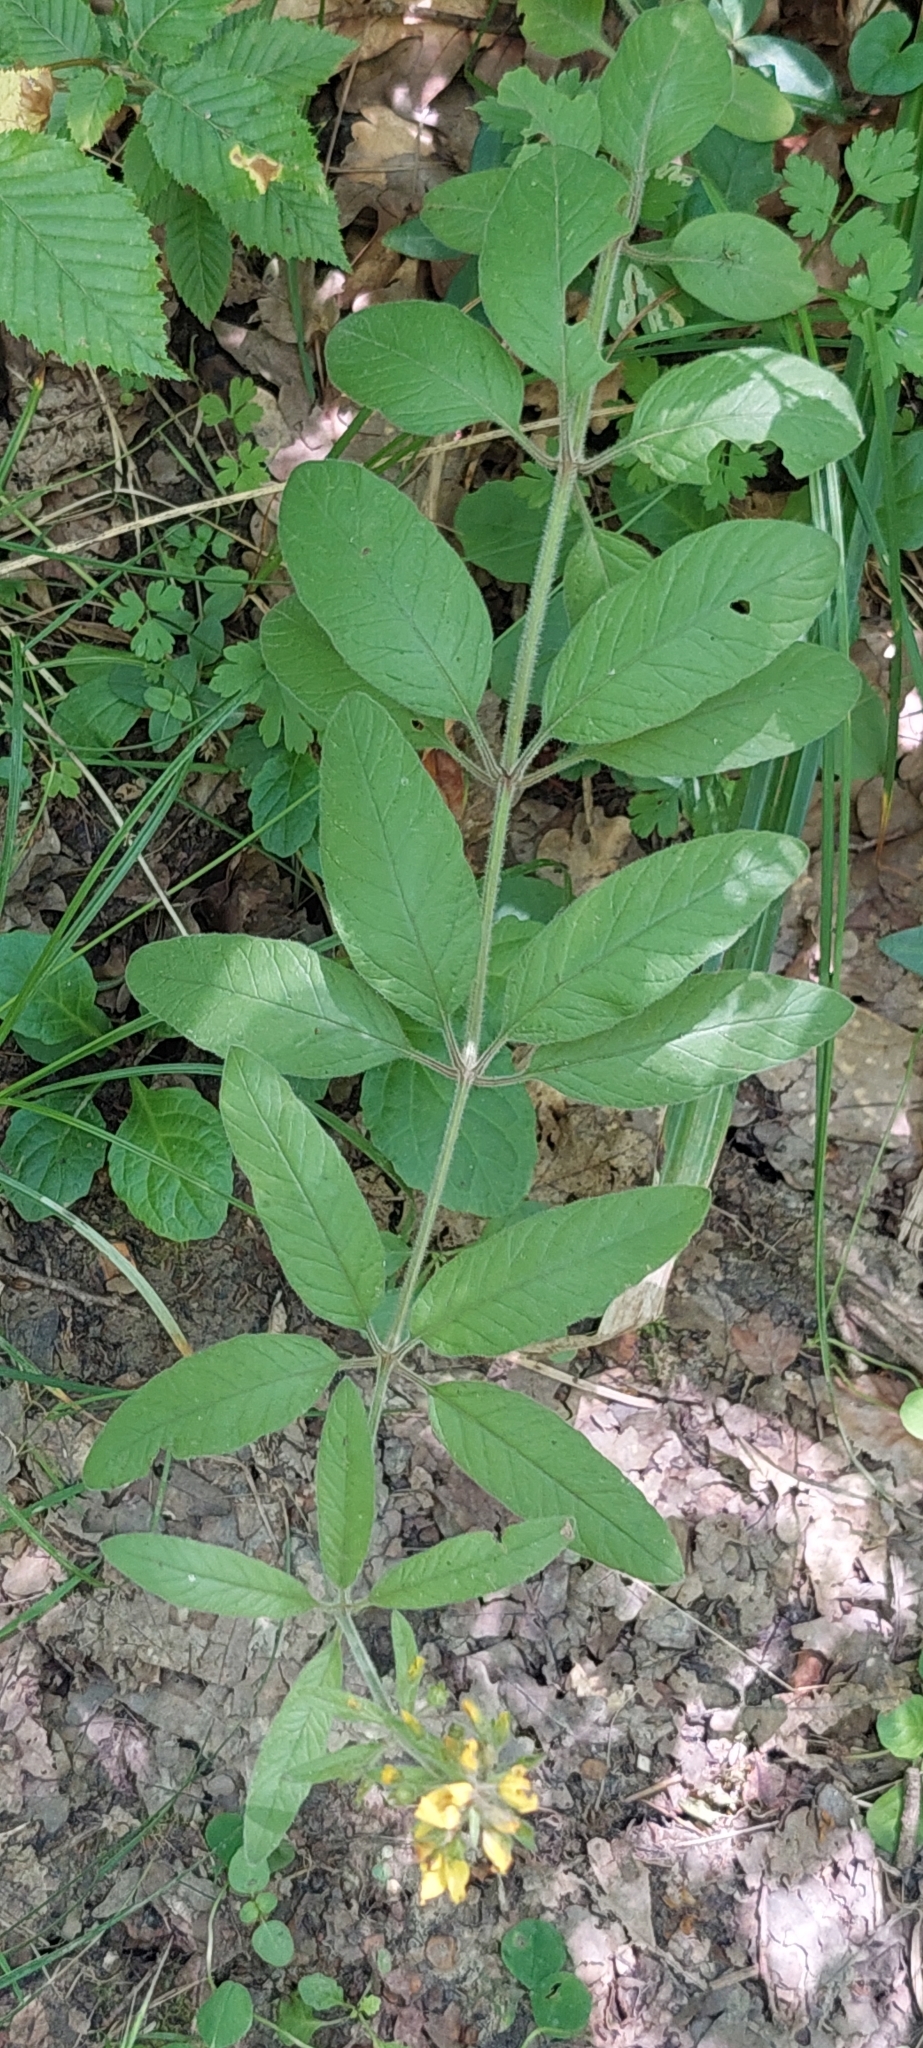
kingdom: Plantae
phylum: Tracheophyta
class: Magnoliopsida
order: Ericales
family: Primulaceae
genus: Lysimachia
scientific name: Lysimachia verticillaris
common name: Yellow loosestrife
